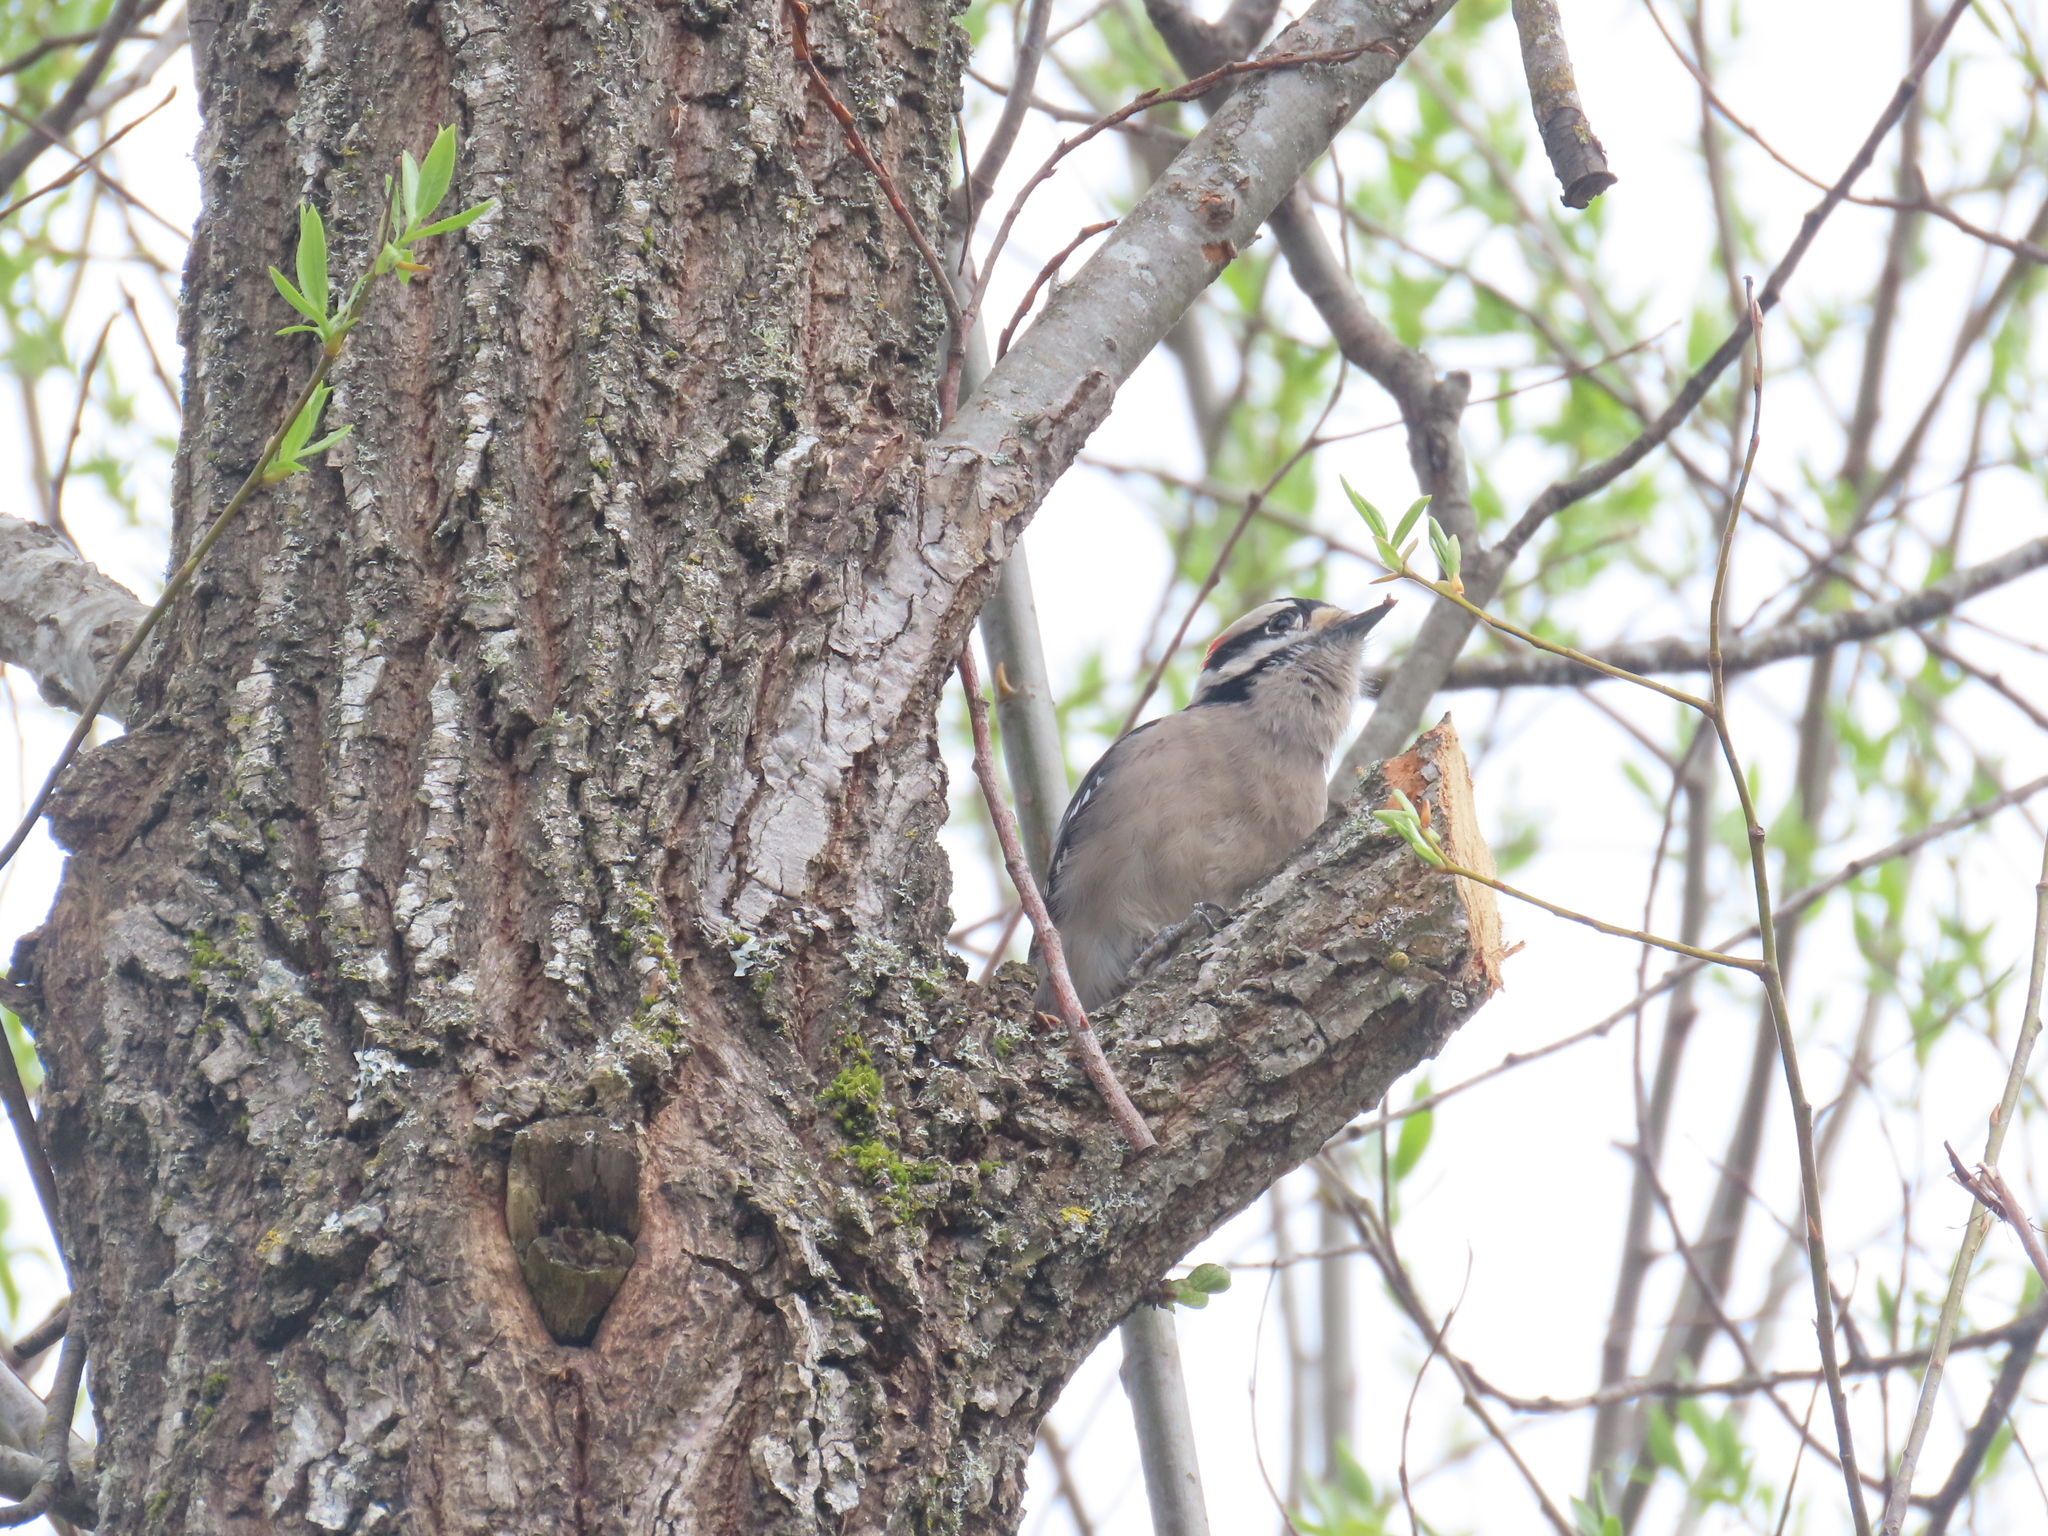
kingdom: Animalia
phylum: Chordata
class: Aves
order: Piciformes
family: Picidae
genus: Dryobates
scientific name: Dryobates pubescens
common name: Downy woodpecker
